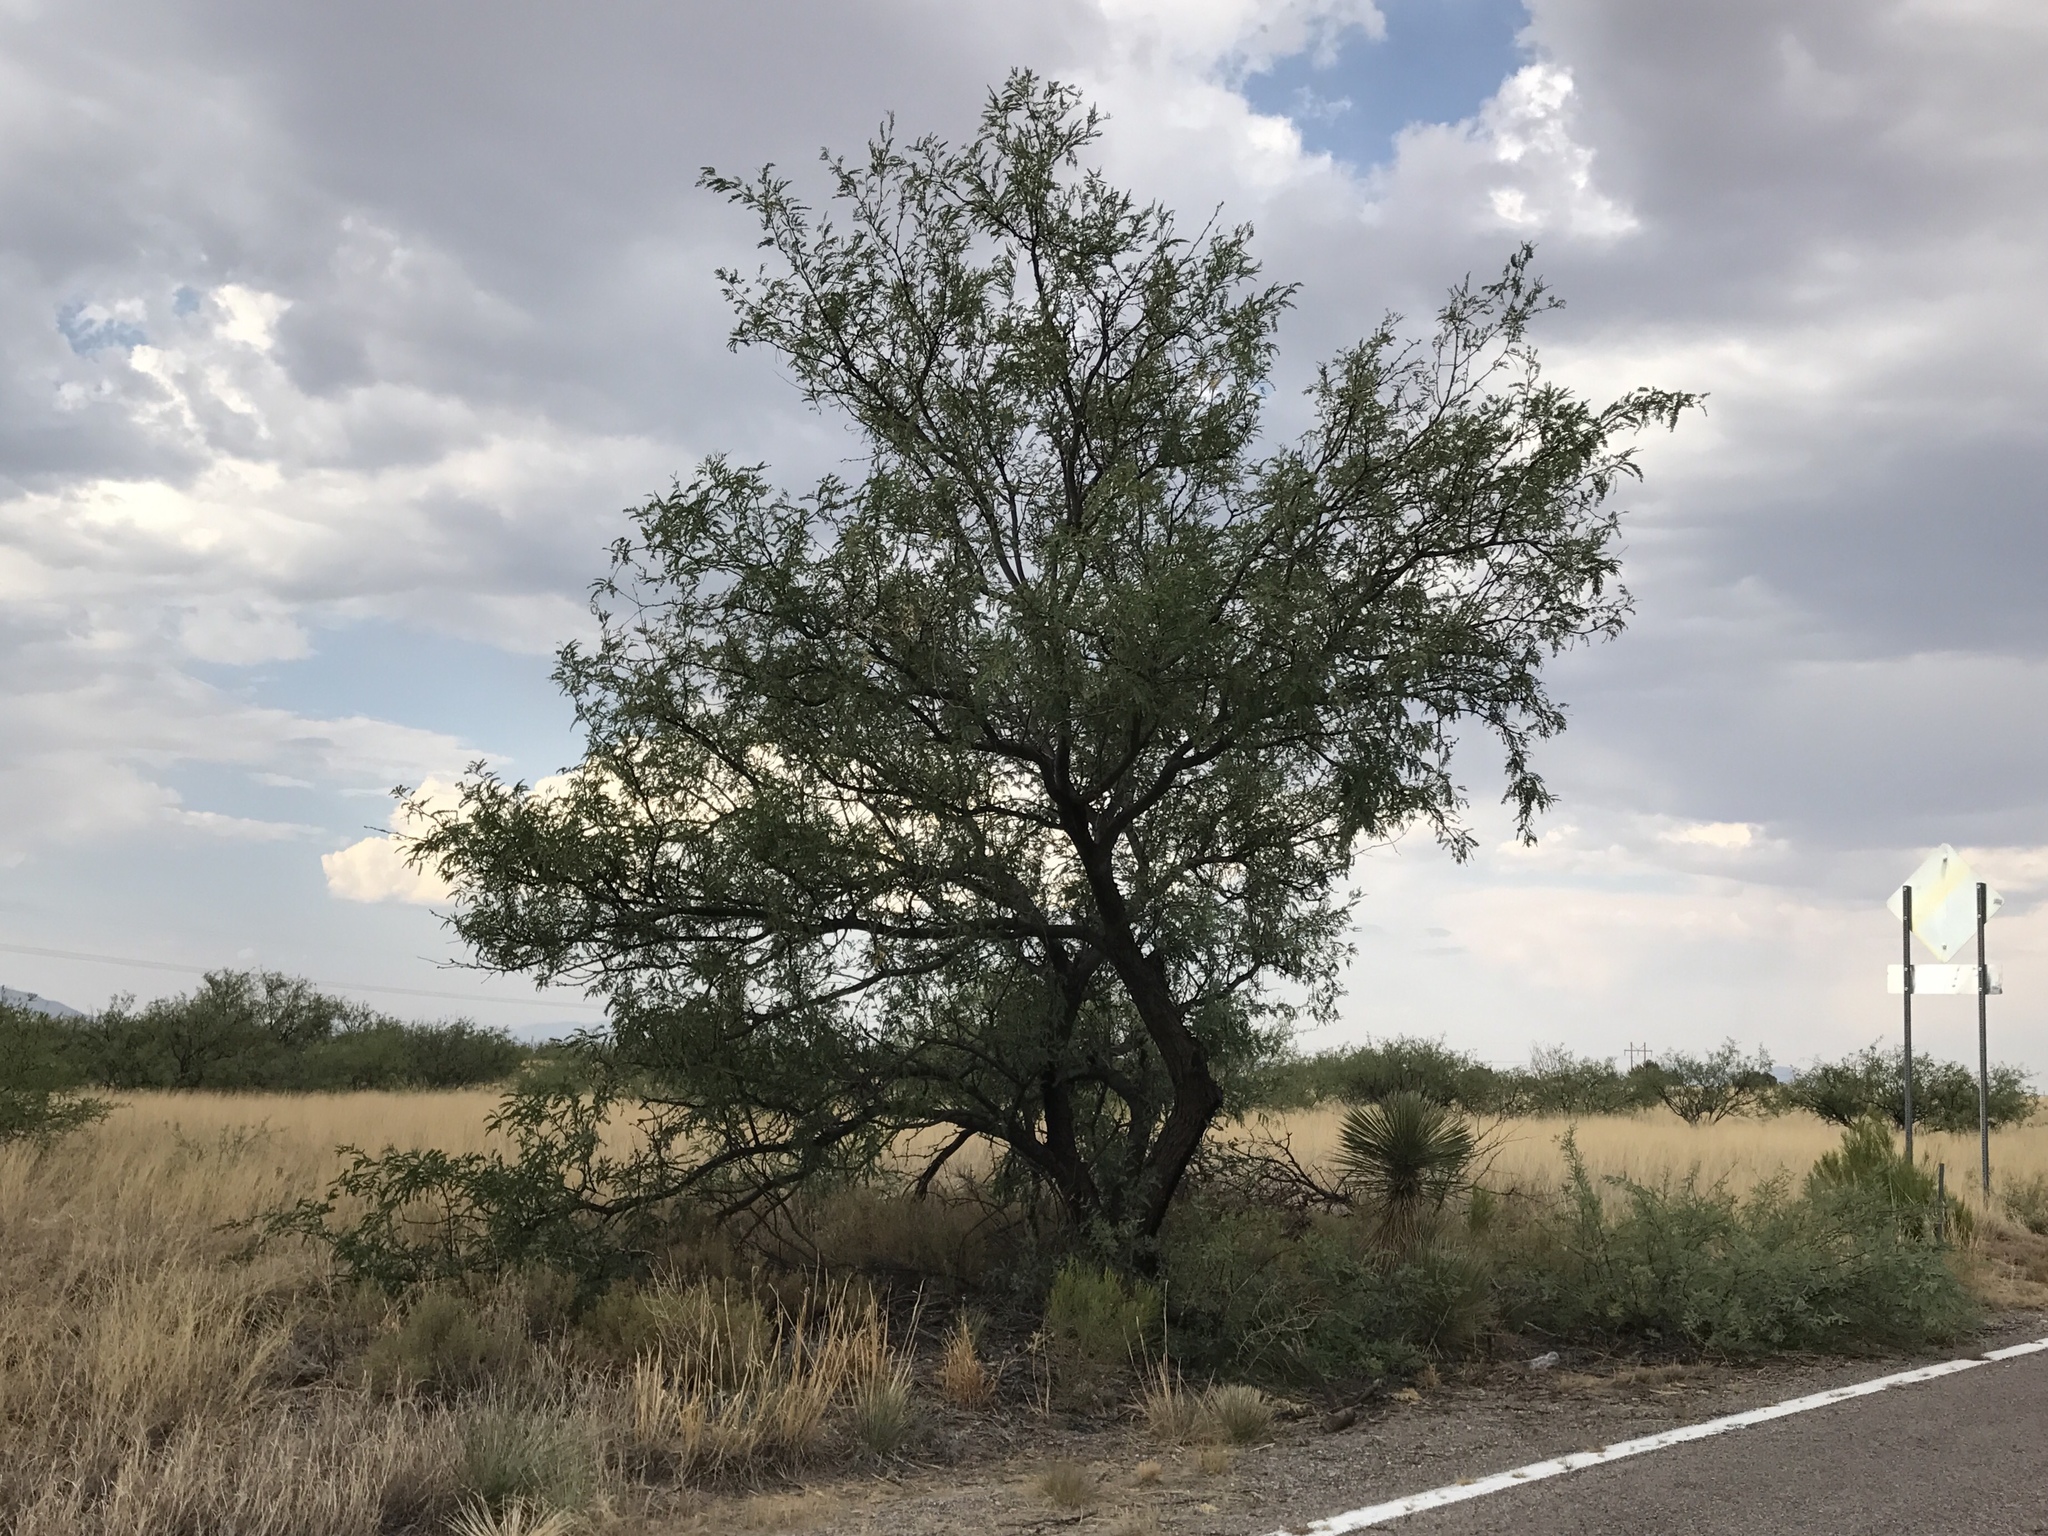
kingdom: Plantae
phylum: Tracheophyta
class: Magnoliopsida
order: Fabales
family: Fabaceae
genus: Prosopis
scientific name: Prosopis velutina
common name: Velvet mesquite
